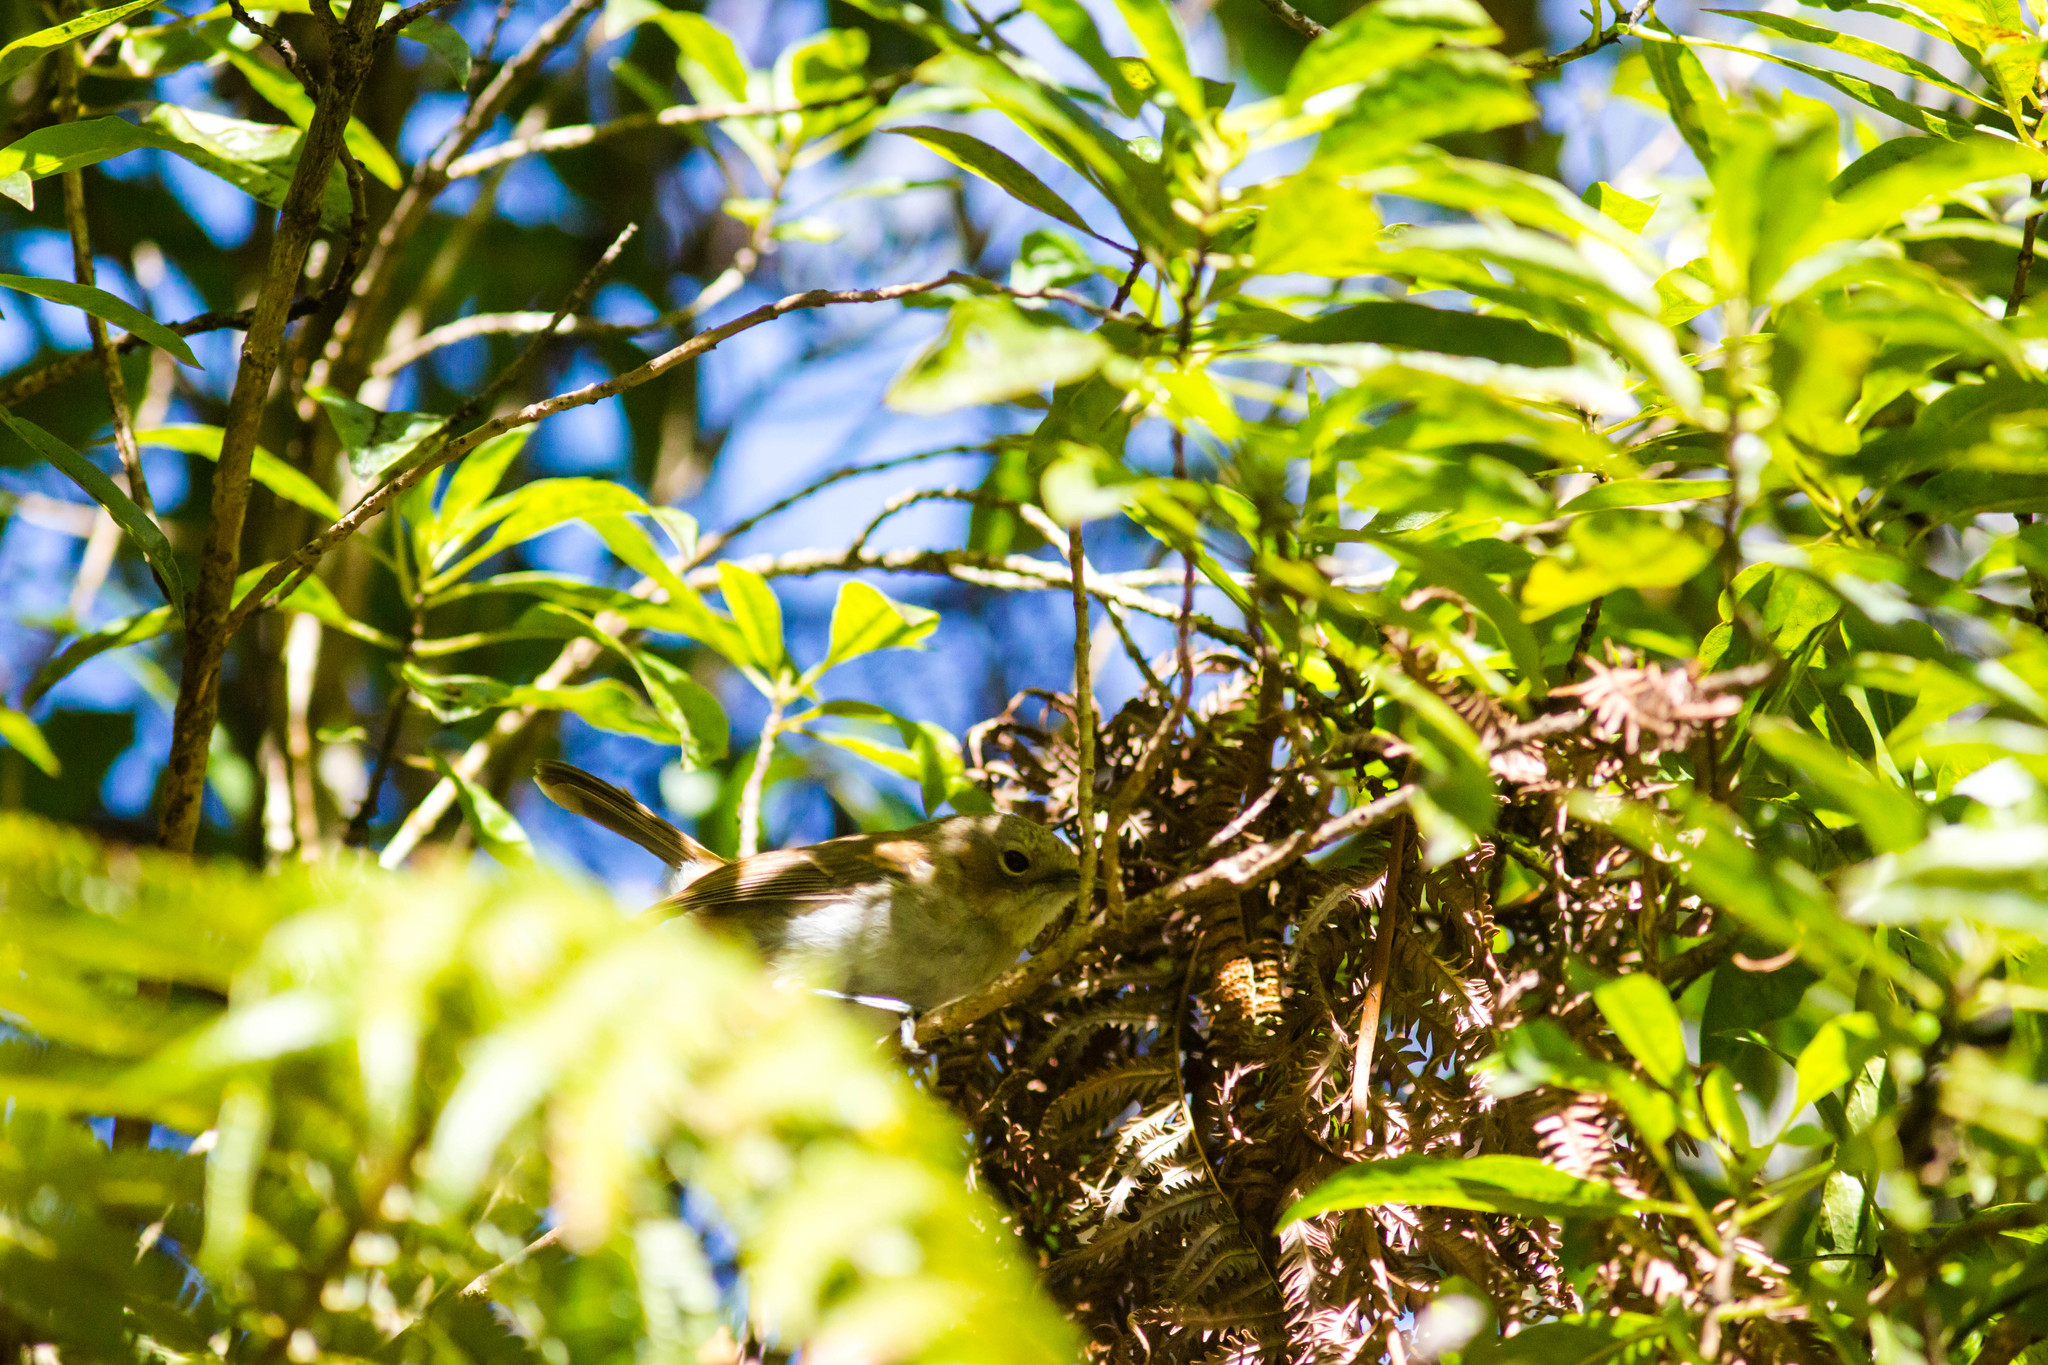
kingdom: Animalia
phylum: Chordata
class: Aves
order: Passeriformes
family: Monarchidae
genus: Chasiempis
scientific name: Chasiempis sandwichensis
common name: Hawaii elepaio
